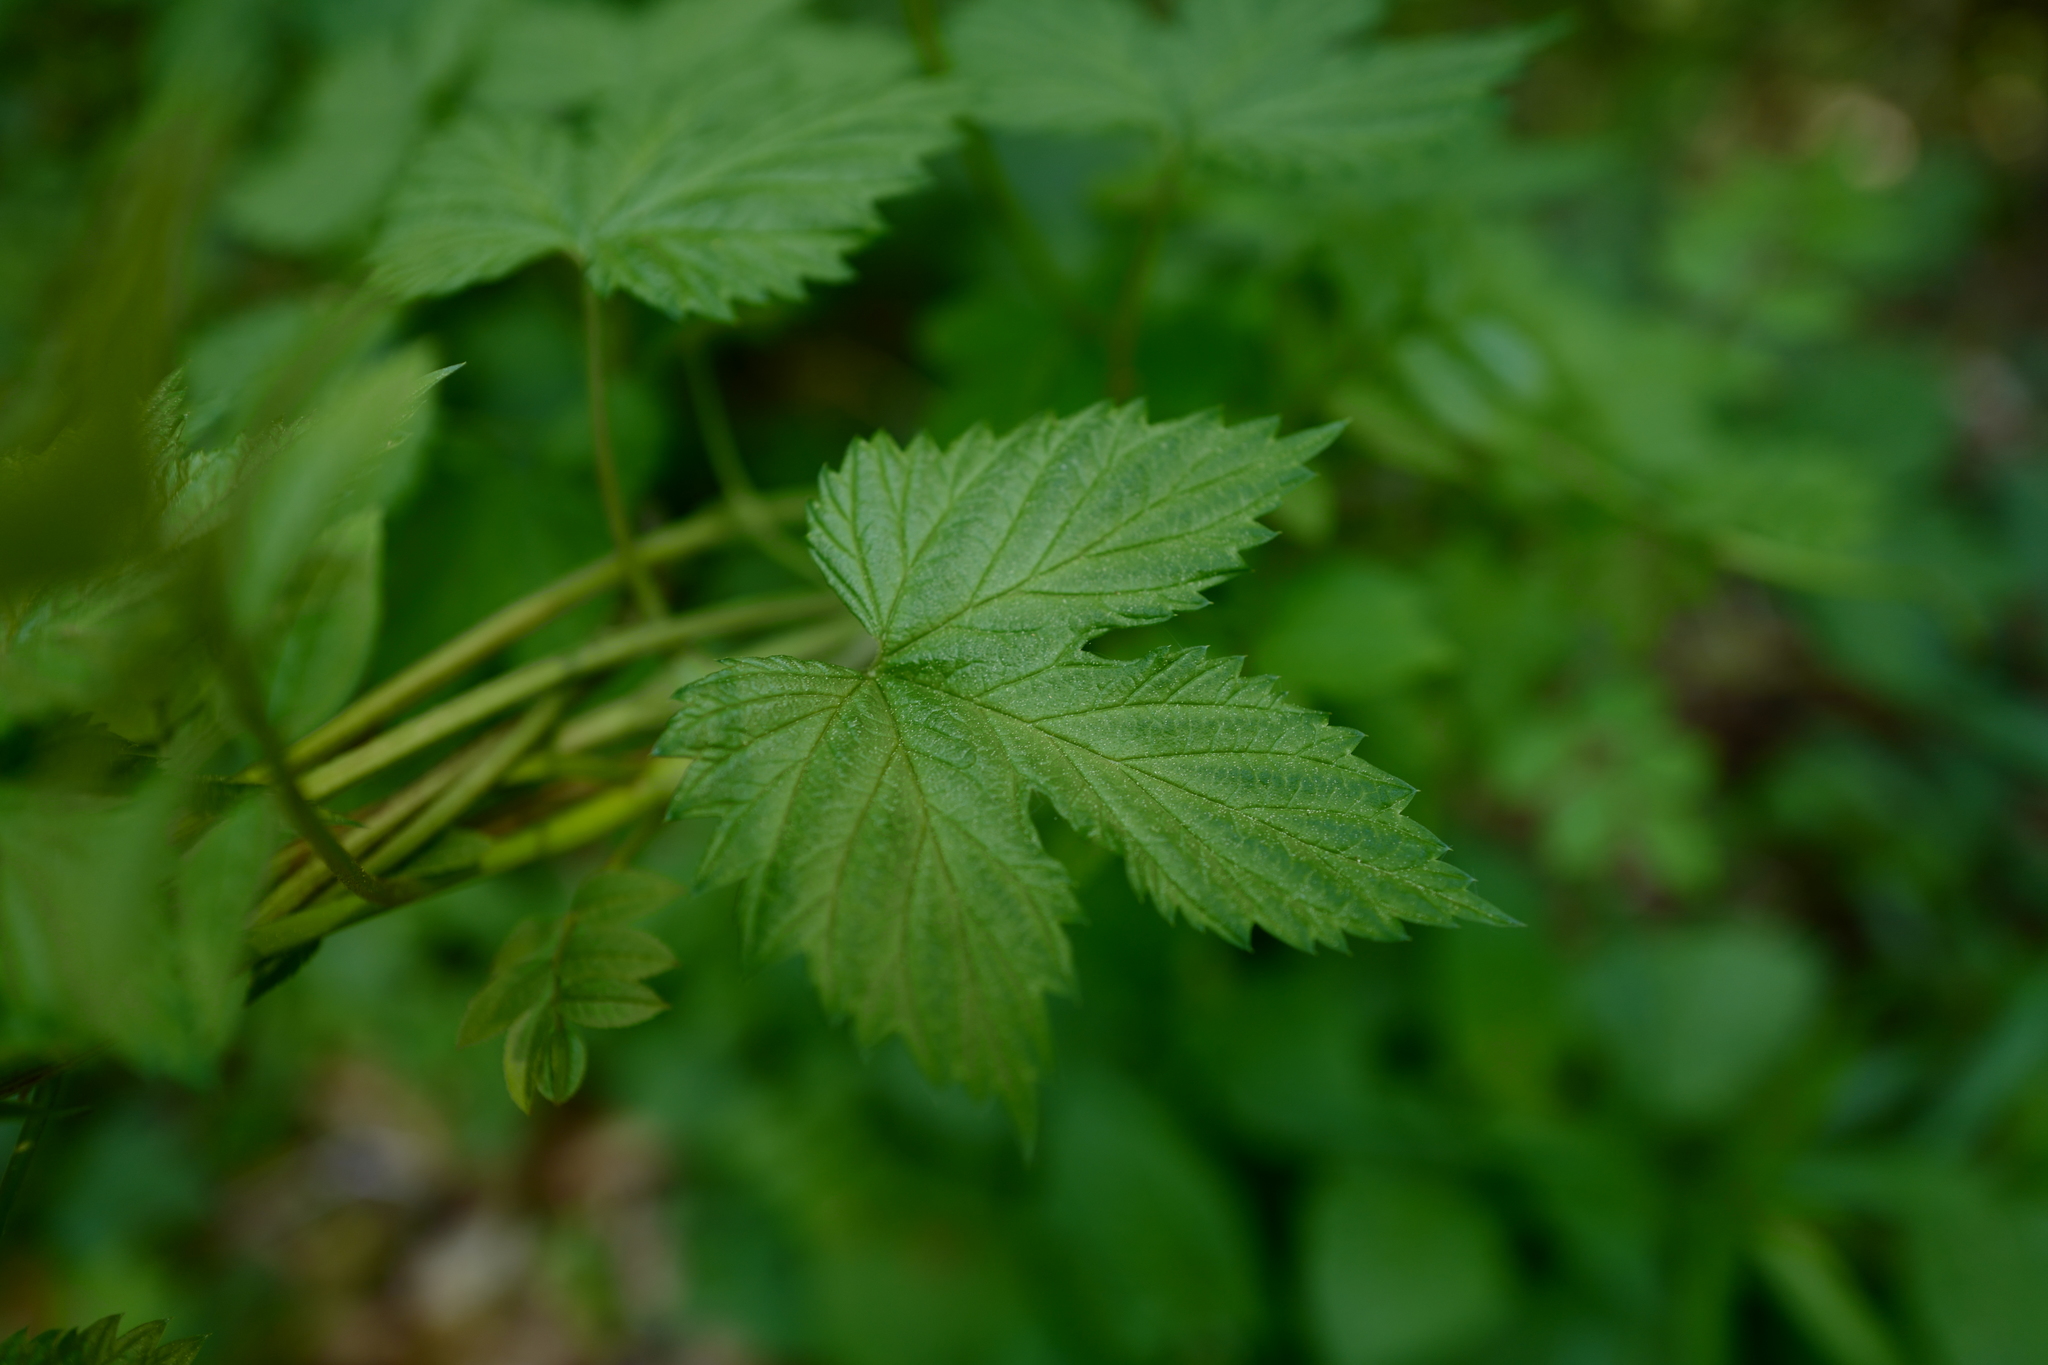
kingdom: Plantae
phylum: Tracheophyta
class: Magnoliopsida
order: Rosales
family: Cannabaceae
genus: Humulus
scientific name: Humulus lupulus
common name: Hop
